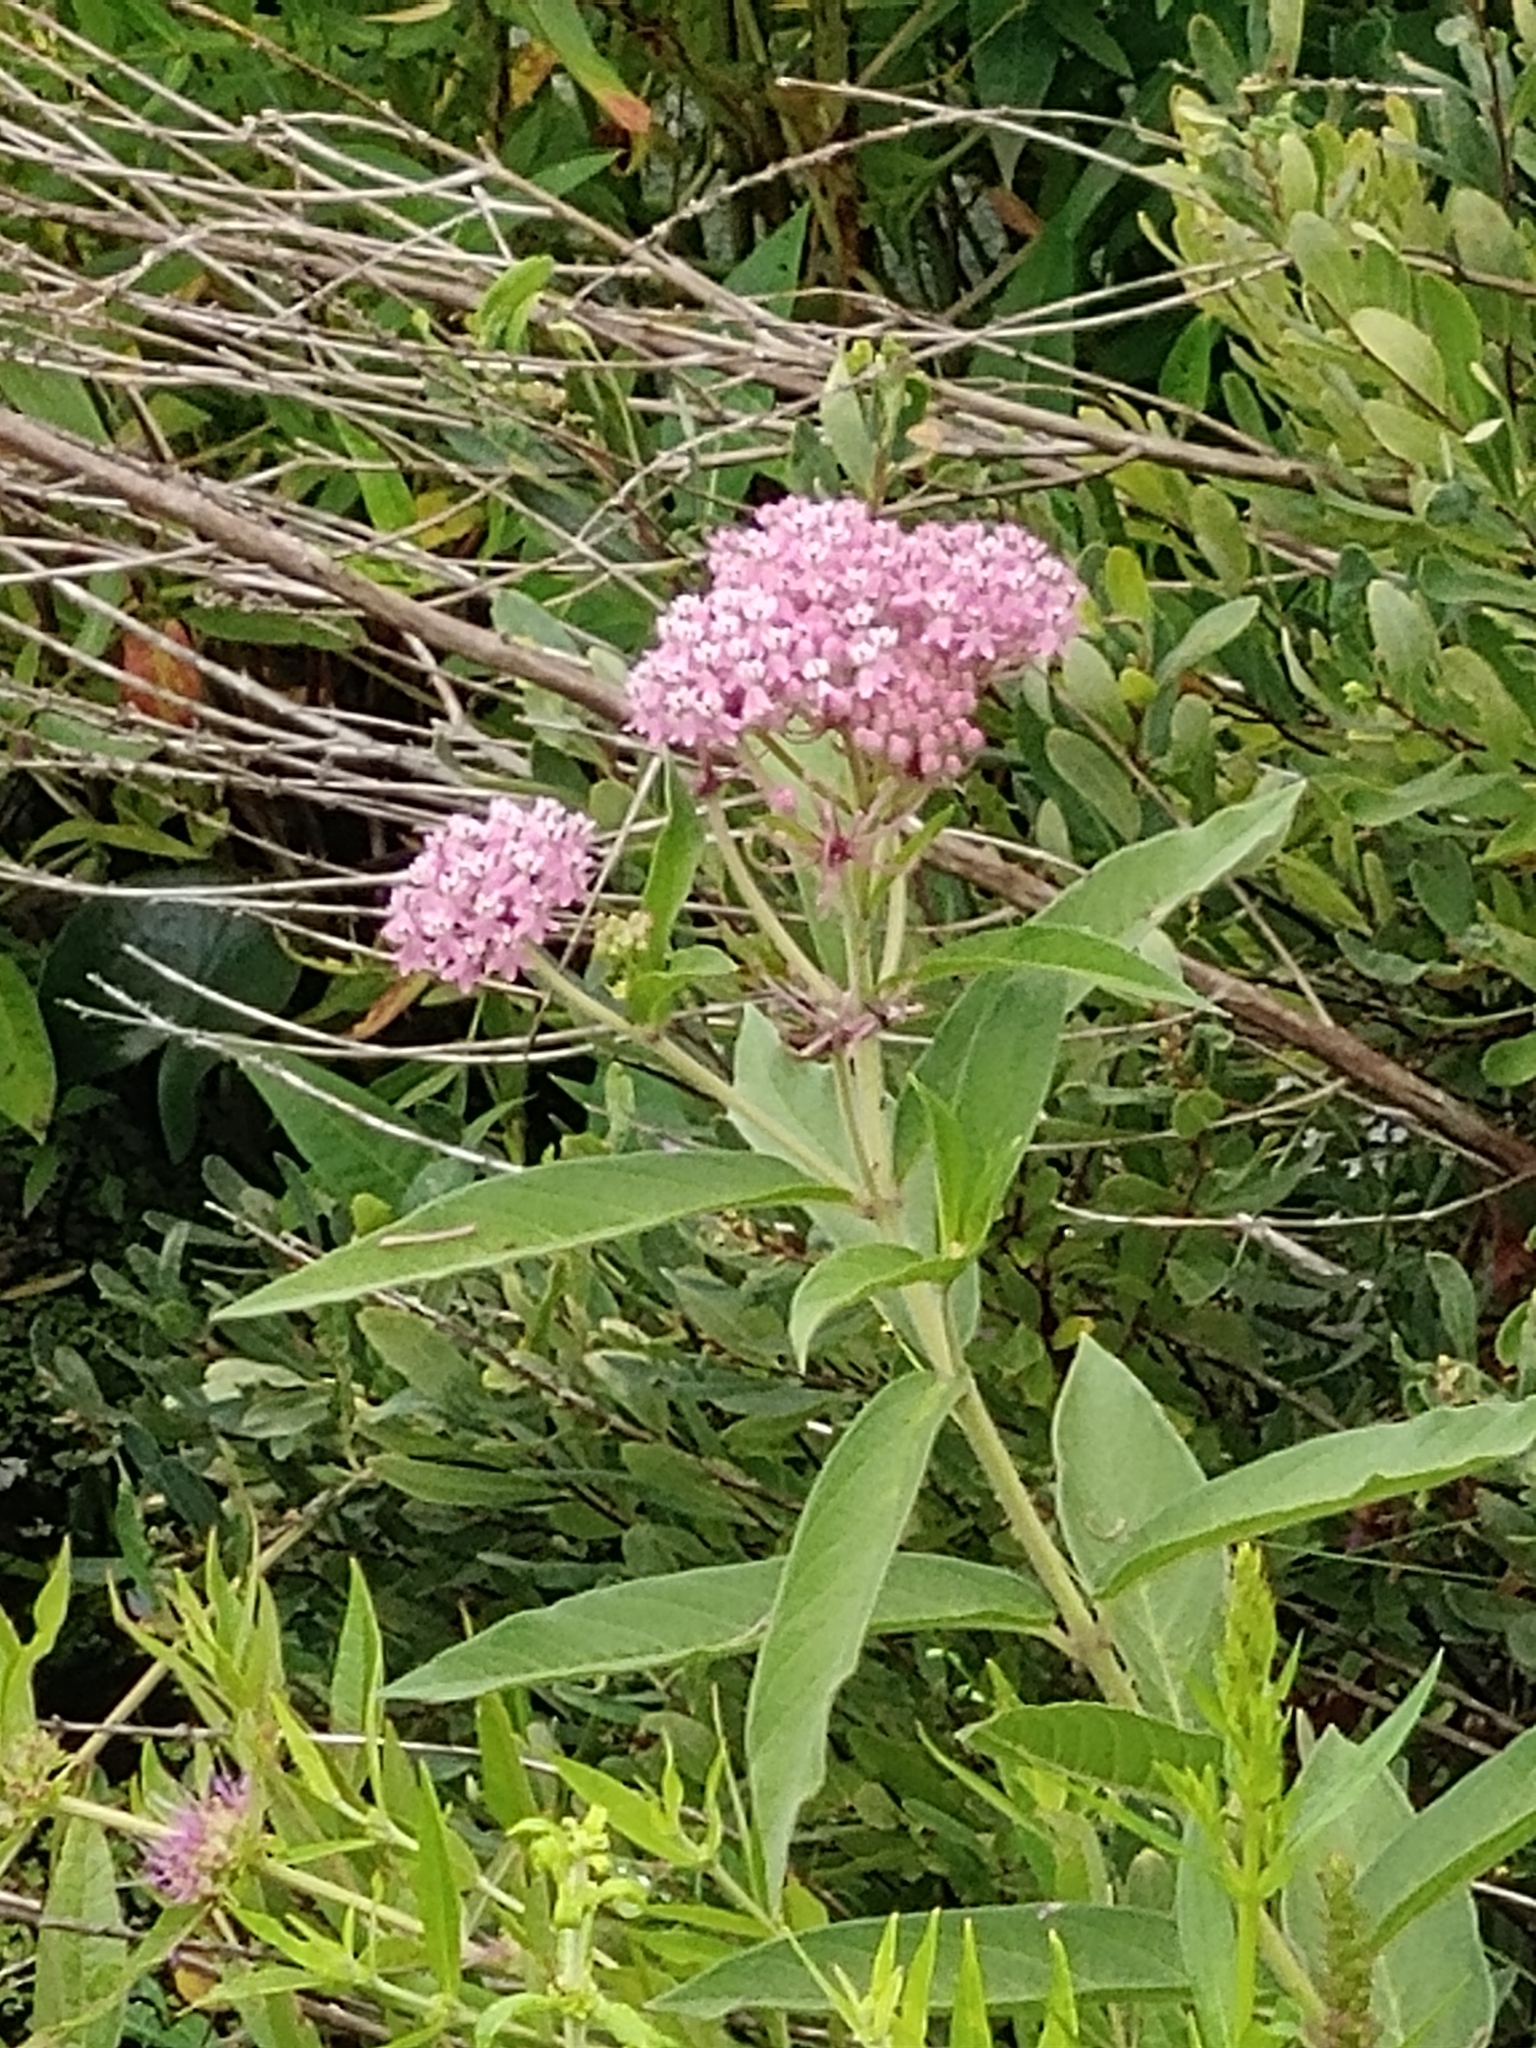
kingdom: Plantae
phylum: Tracheophyta
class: Magnoliopsida
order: Gentianales
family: Apocynaceae
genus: Asclepias
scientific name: Asclepias incarnata
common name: Swamp milkweed
